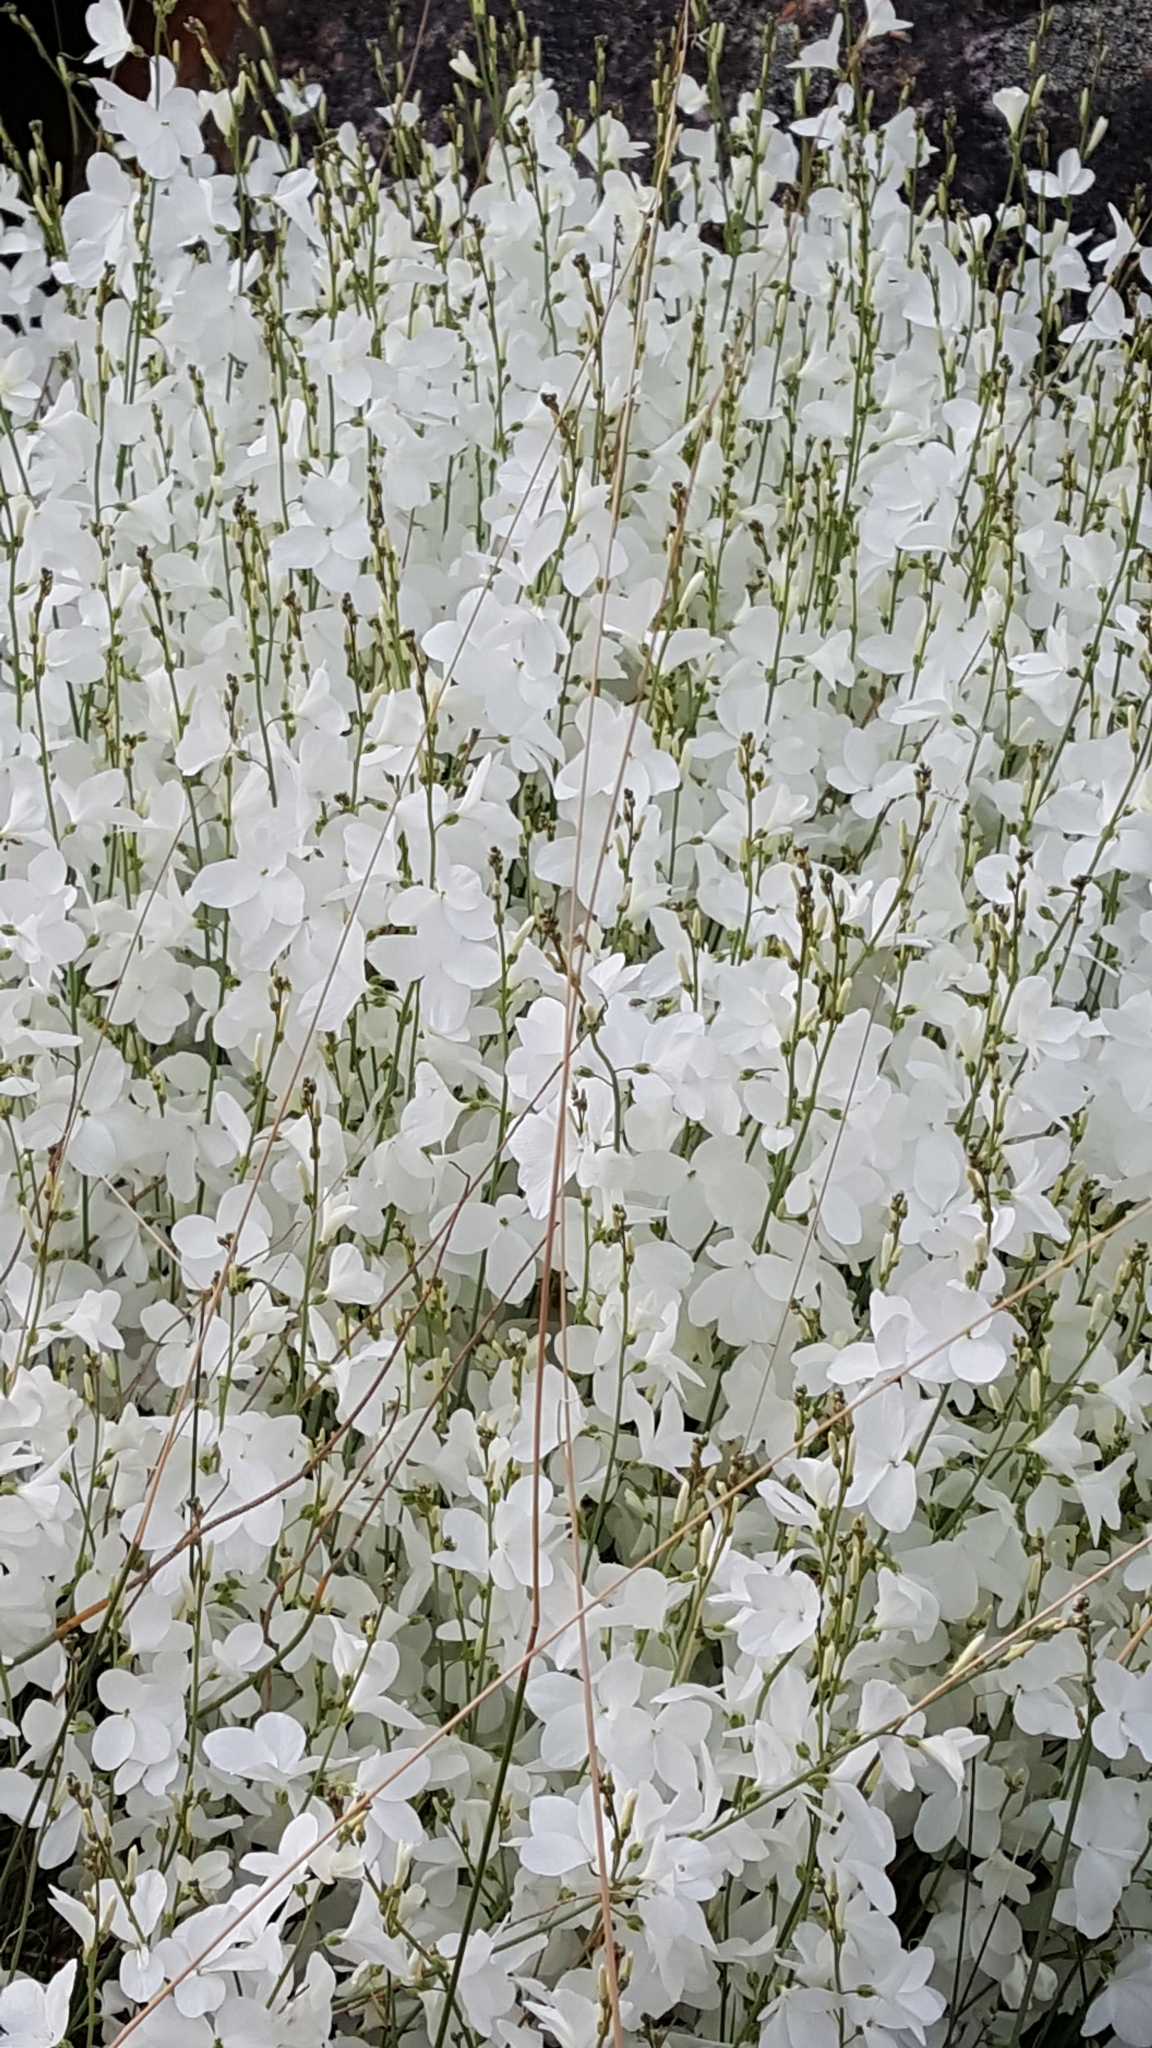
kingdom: Plantae
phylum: Tracheophyta
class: Magnoliopsida
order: Brassicales
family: Brassicaceae
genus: Heliophila
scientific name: Heliophila juncea
